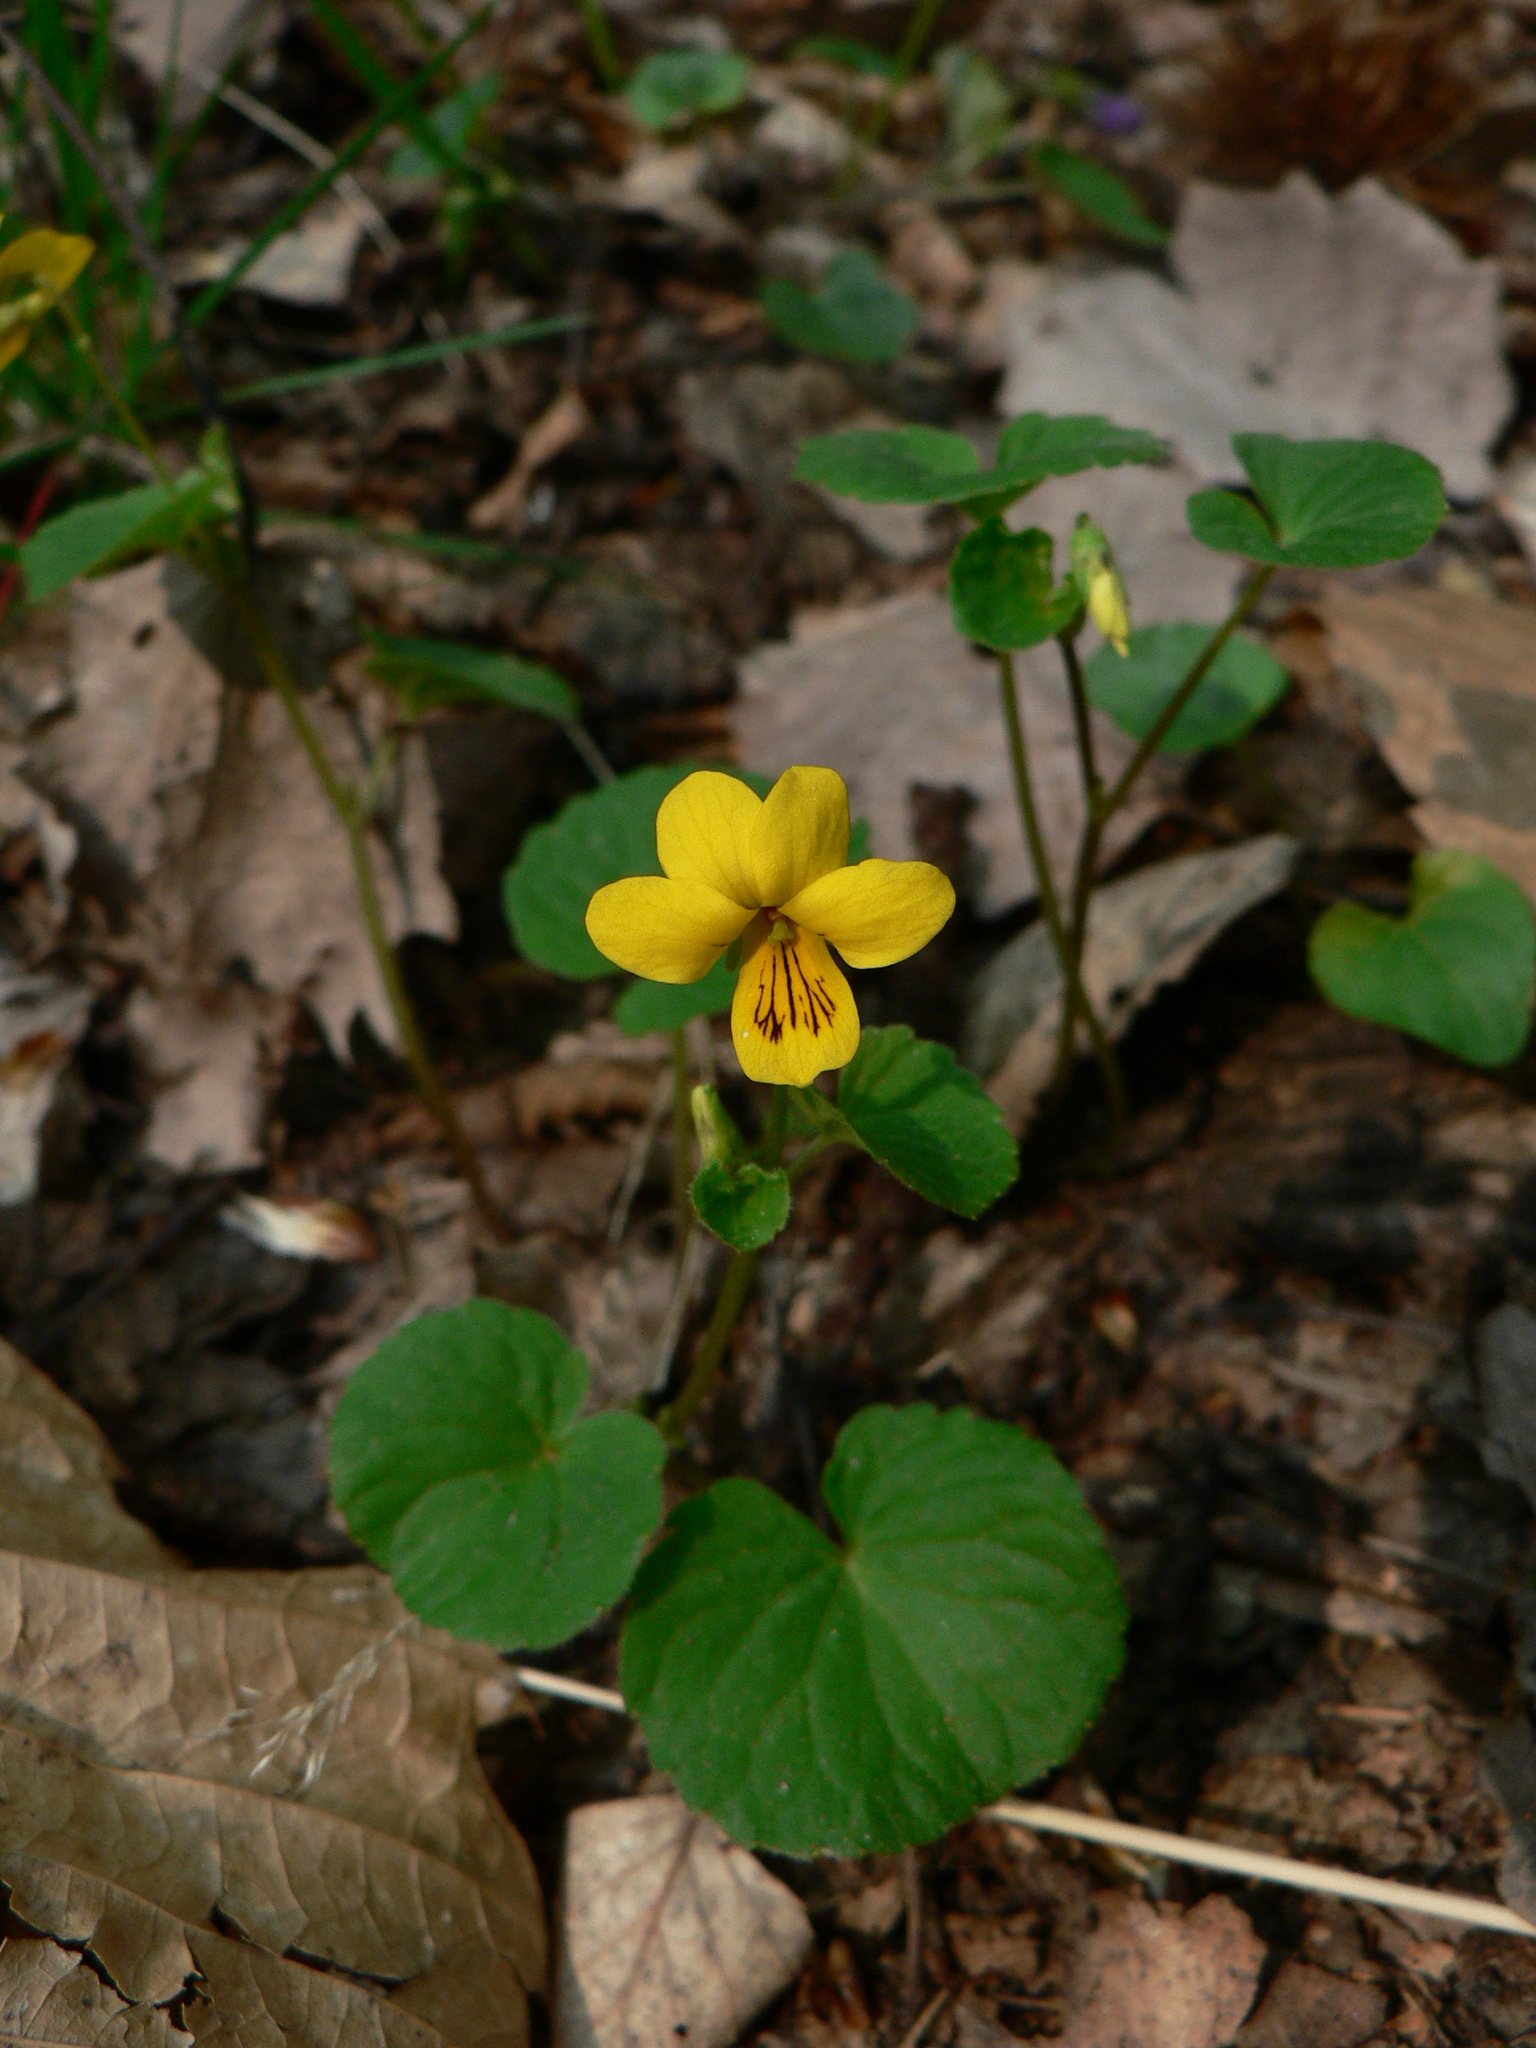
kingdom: Plantae
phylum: Tracheophyta
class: Magnoliopsida
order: Malpighiales
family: Violaceae
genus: Viola
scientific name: Viola biflora
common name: Alpine yellow violet
